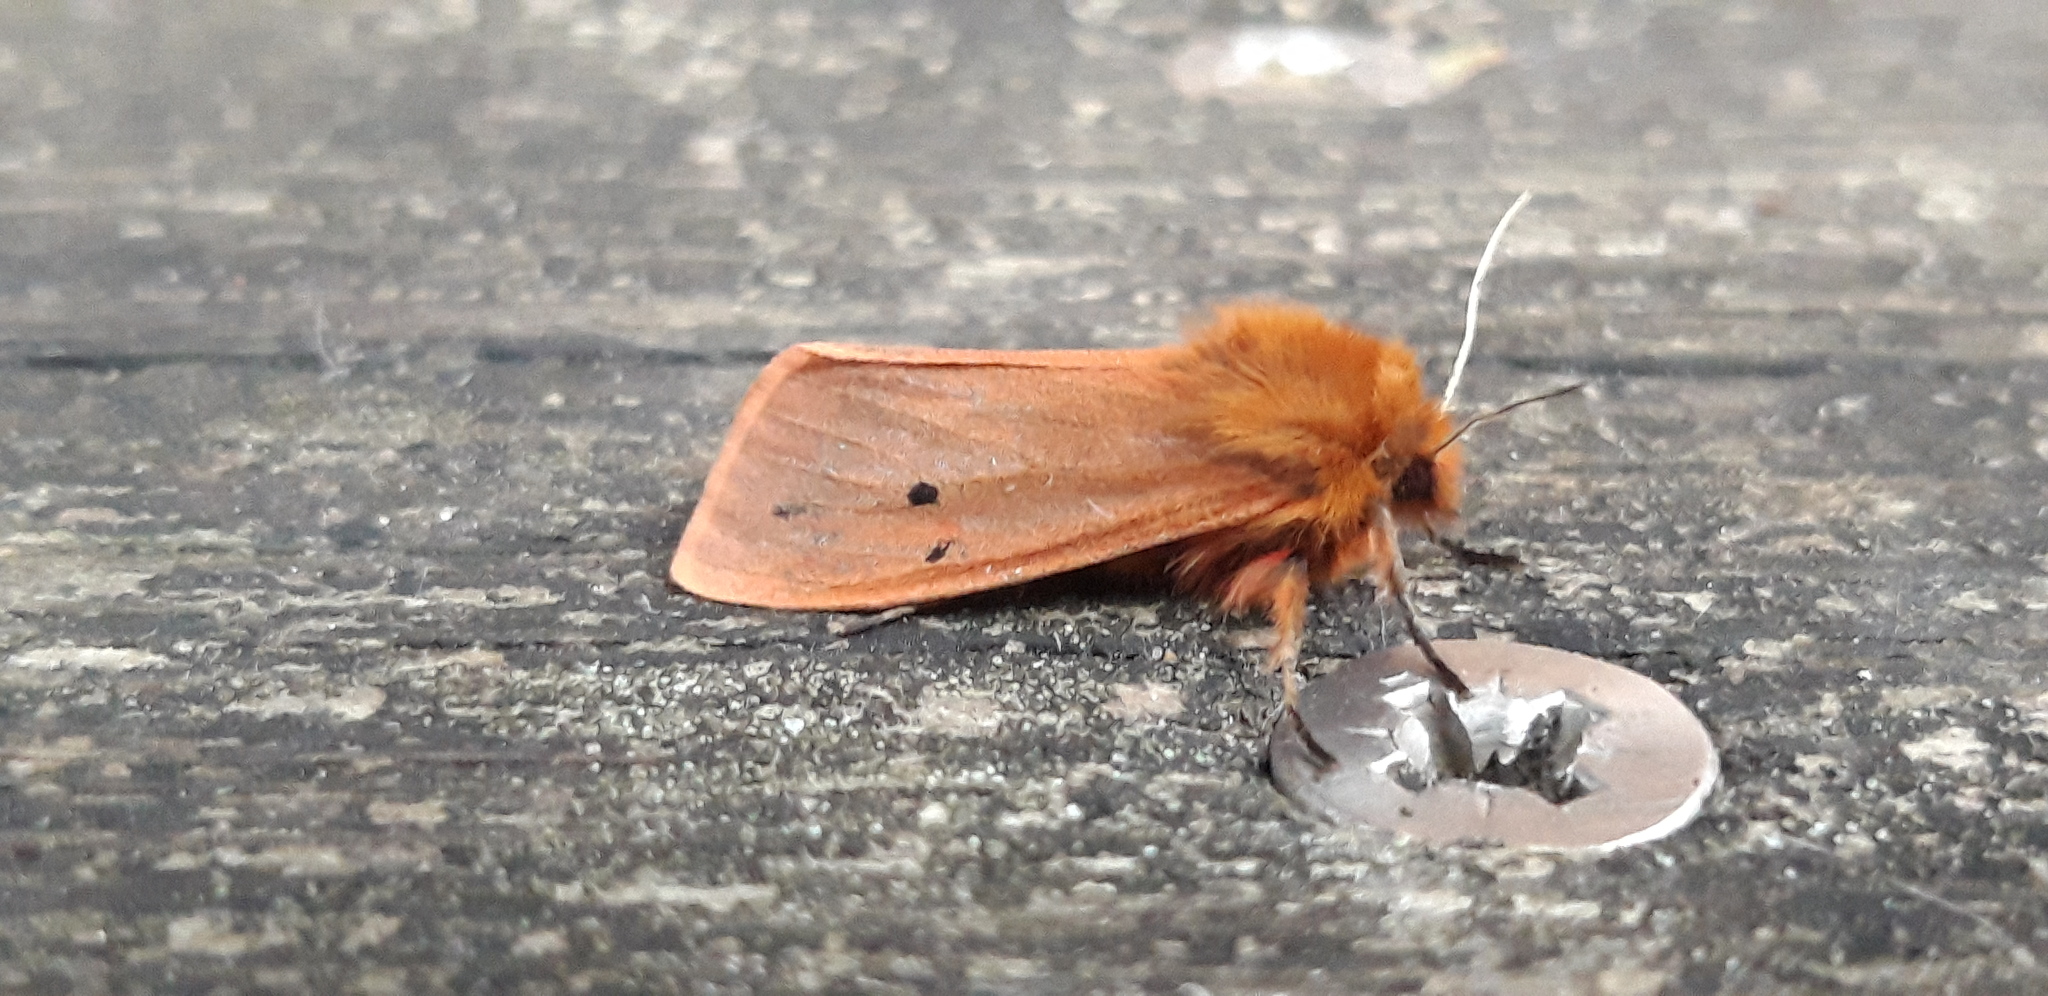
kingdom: Animalia
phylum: Arthropoda
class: Insecta
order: Lepidoptera
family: Erebidae
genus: Phragmatobia
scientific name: Phragmatobia fuliginosa
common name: Ruby tiger
